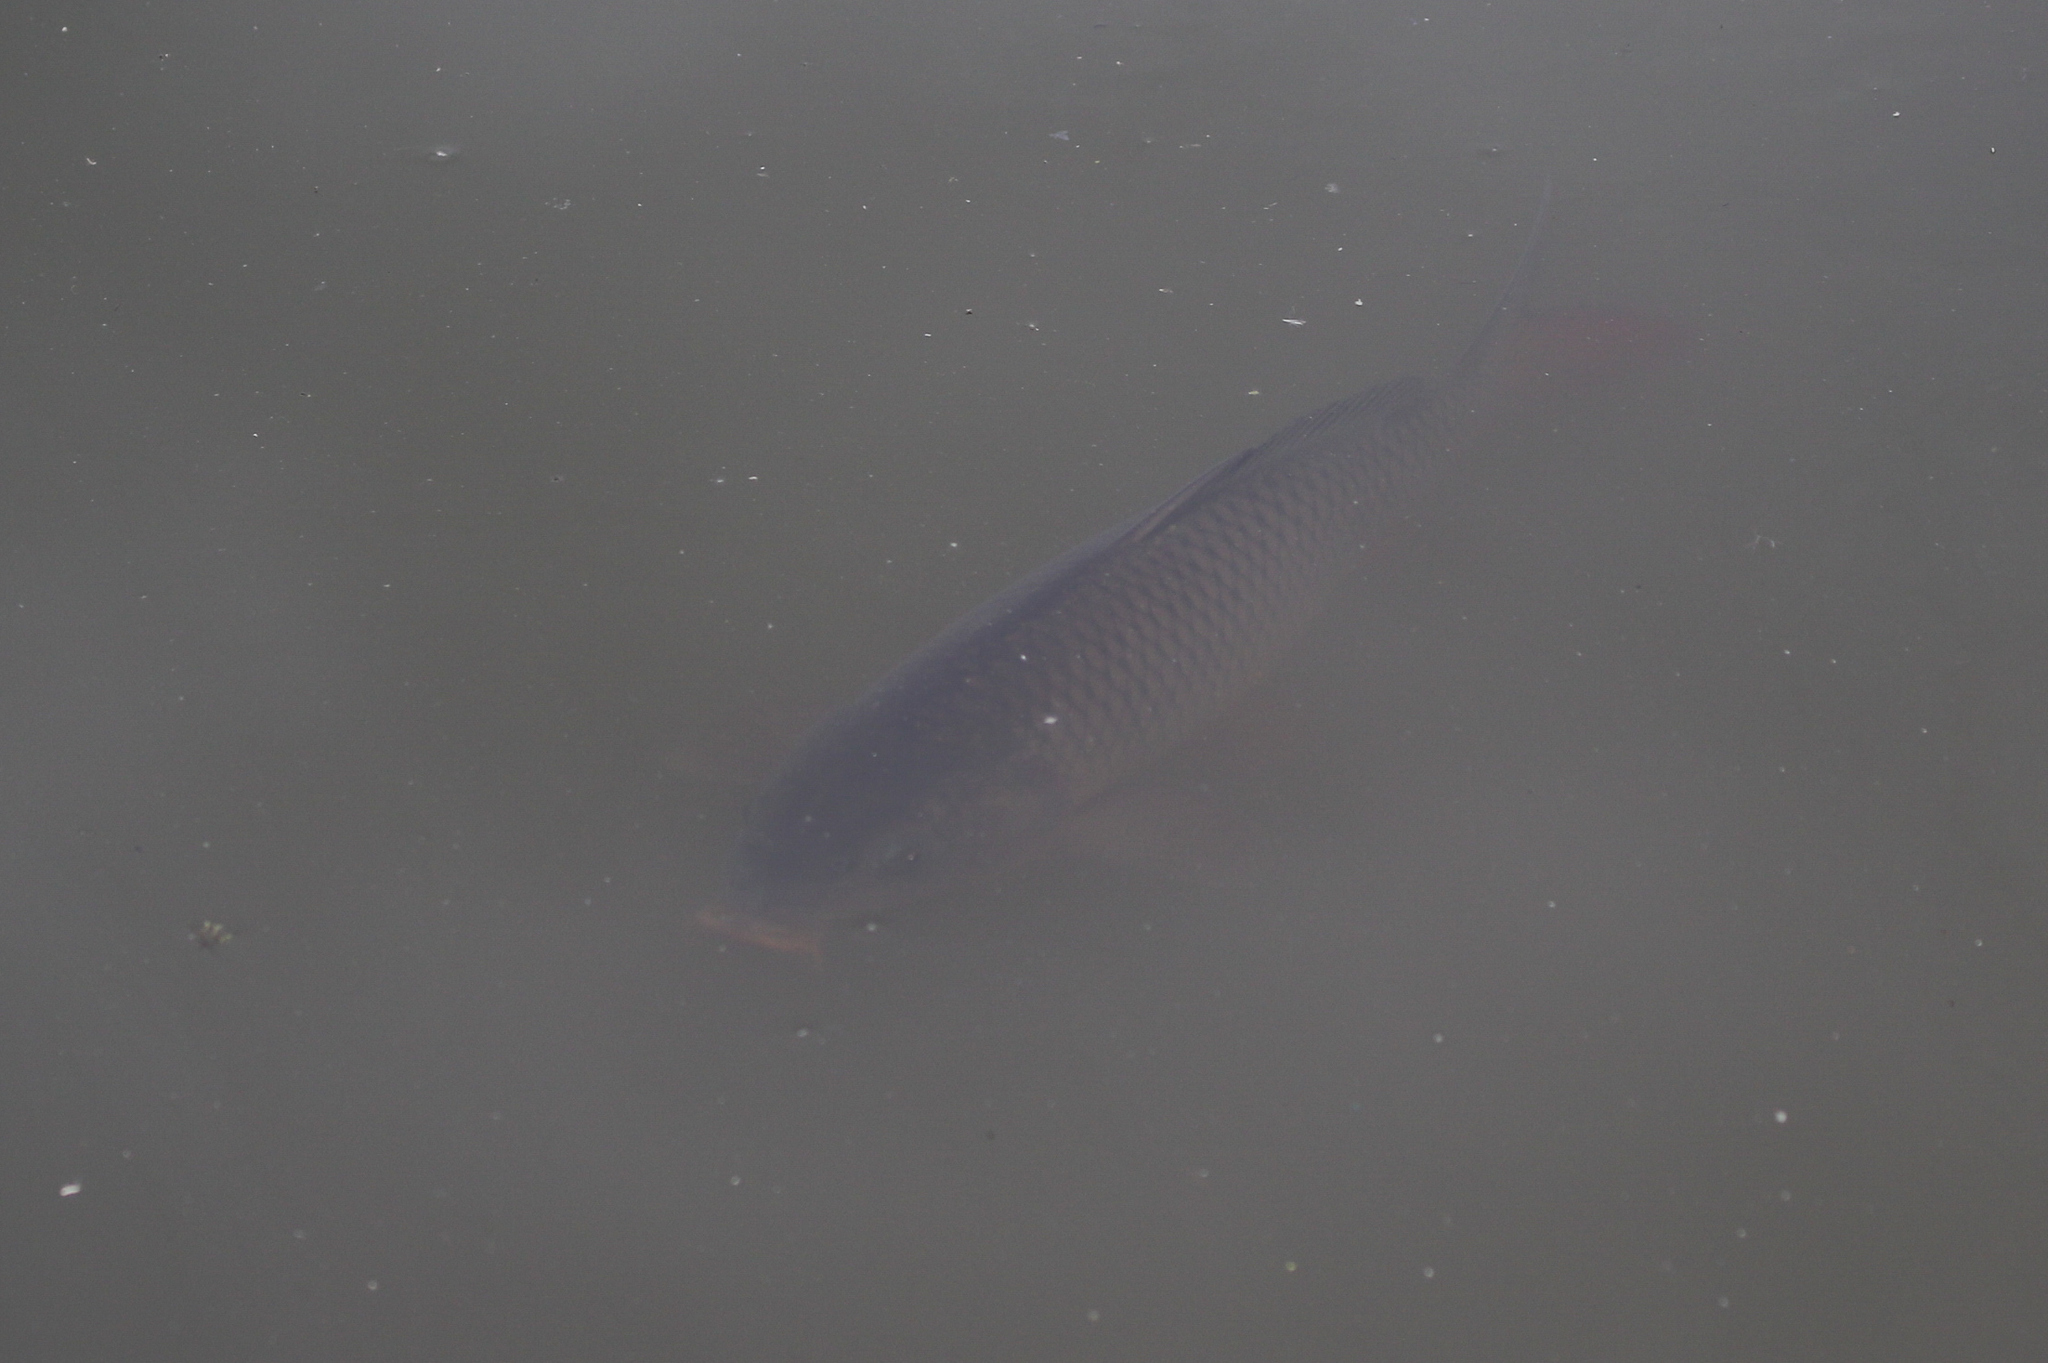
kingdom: Animalia
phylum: Chordata
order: Cypriniformes
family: Cyprinidae
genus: Cyprinus
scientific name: Cyprinus carpio
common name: Common carp
